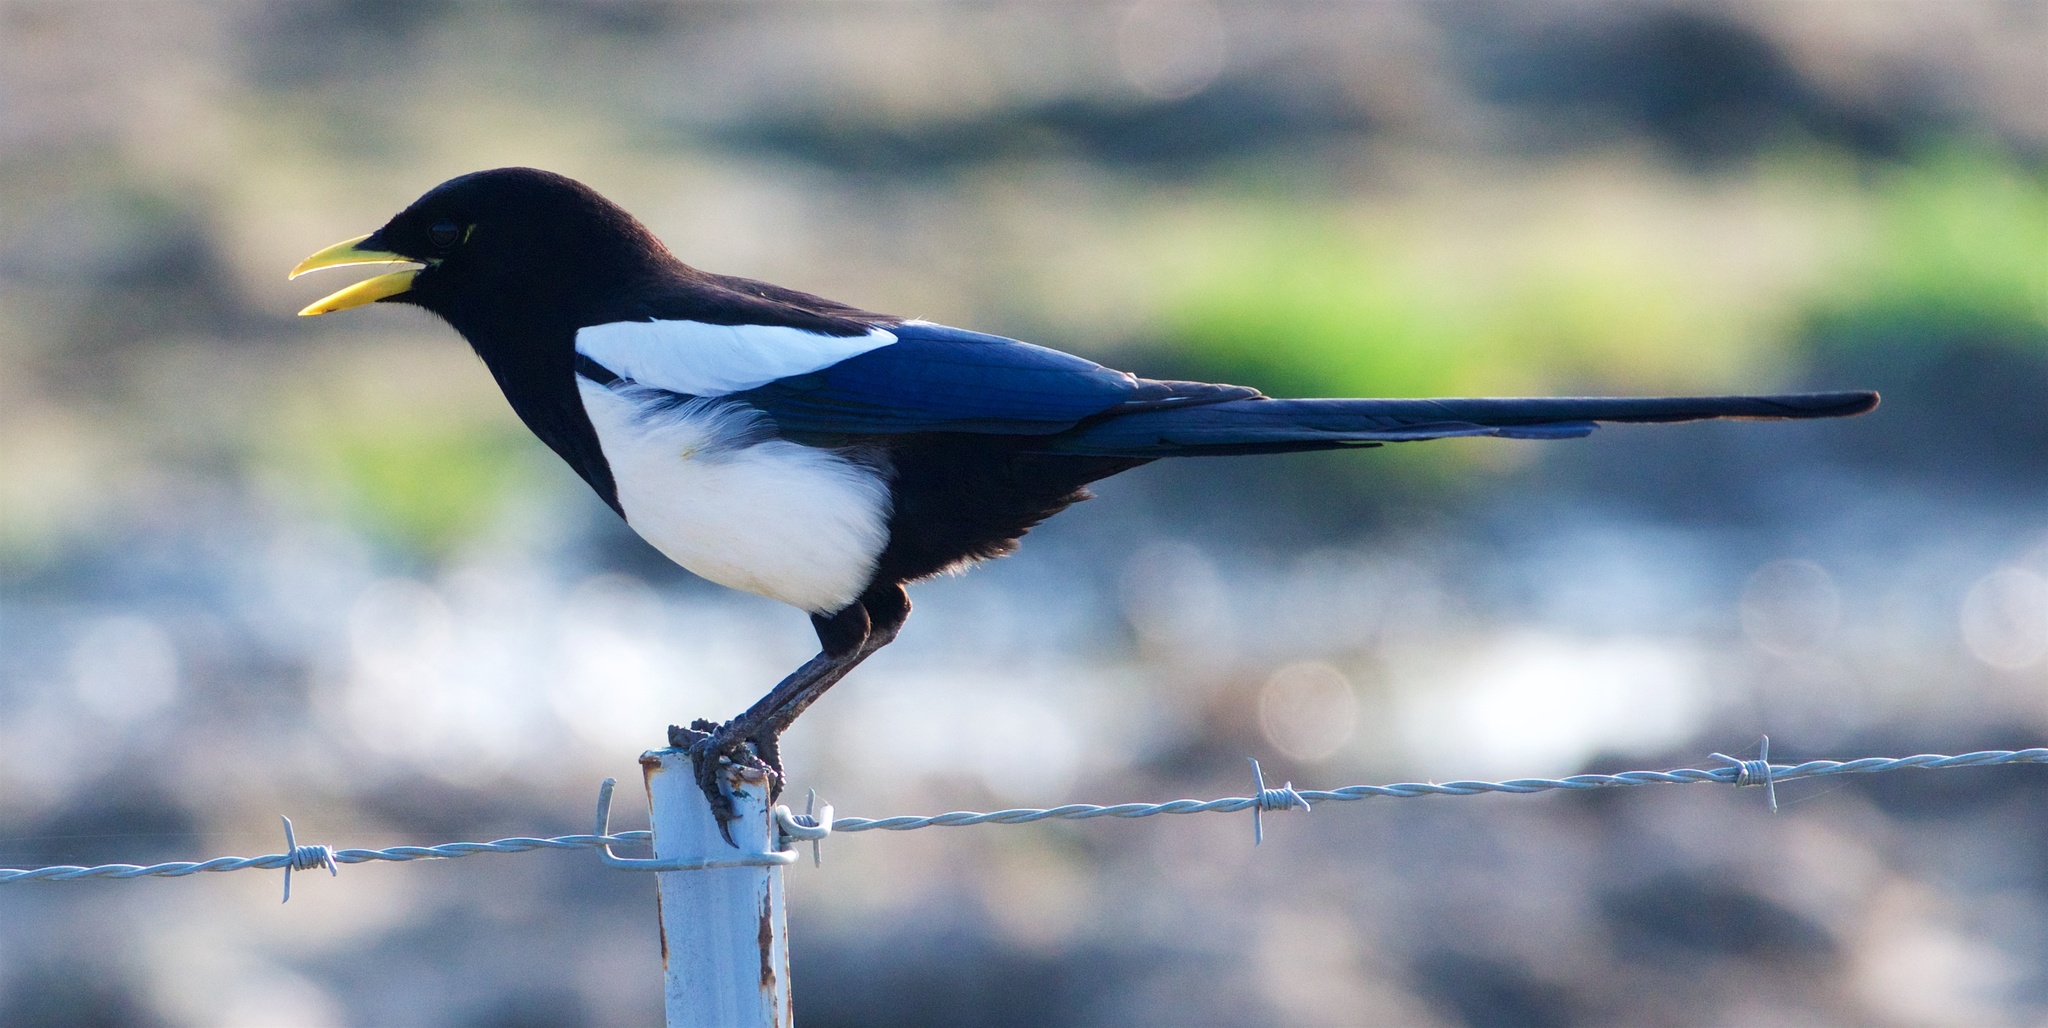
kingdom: Animalia
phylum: Chordata
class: Aves
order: Passeriformes
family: Corvidae
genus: Pica
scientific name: Pica nuttalli
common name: Yellow-billed magpie
